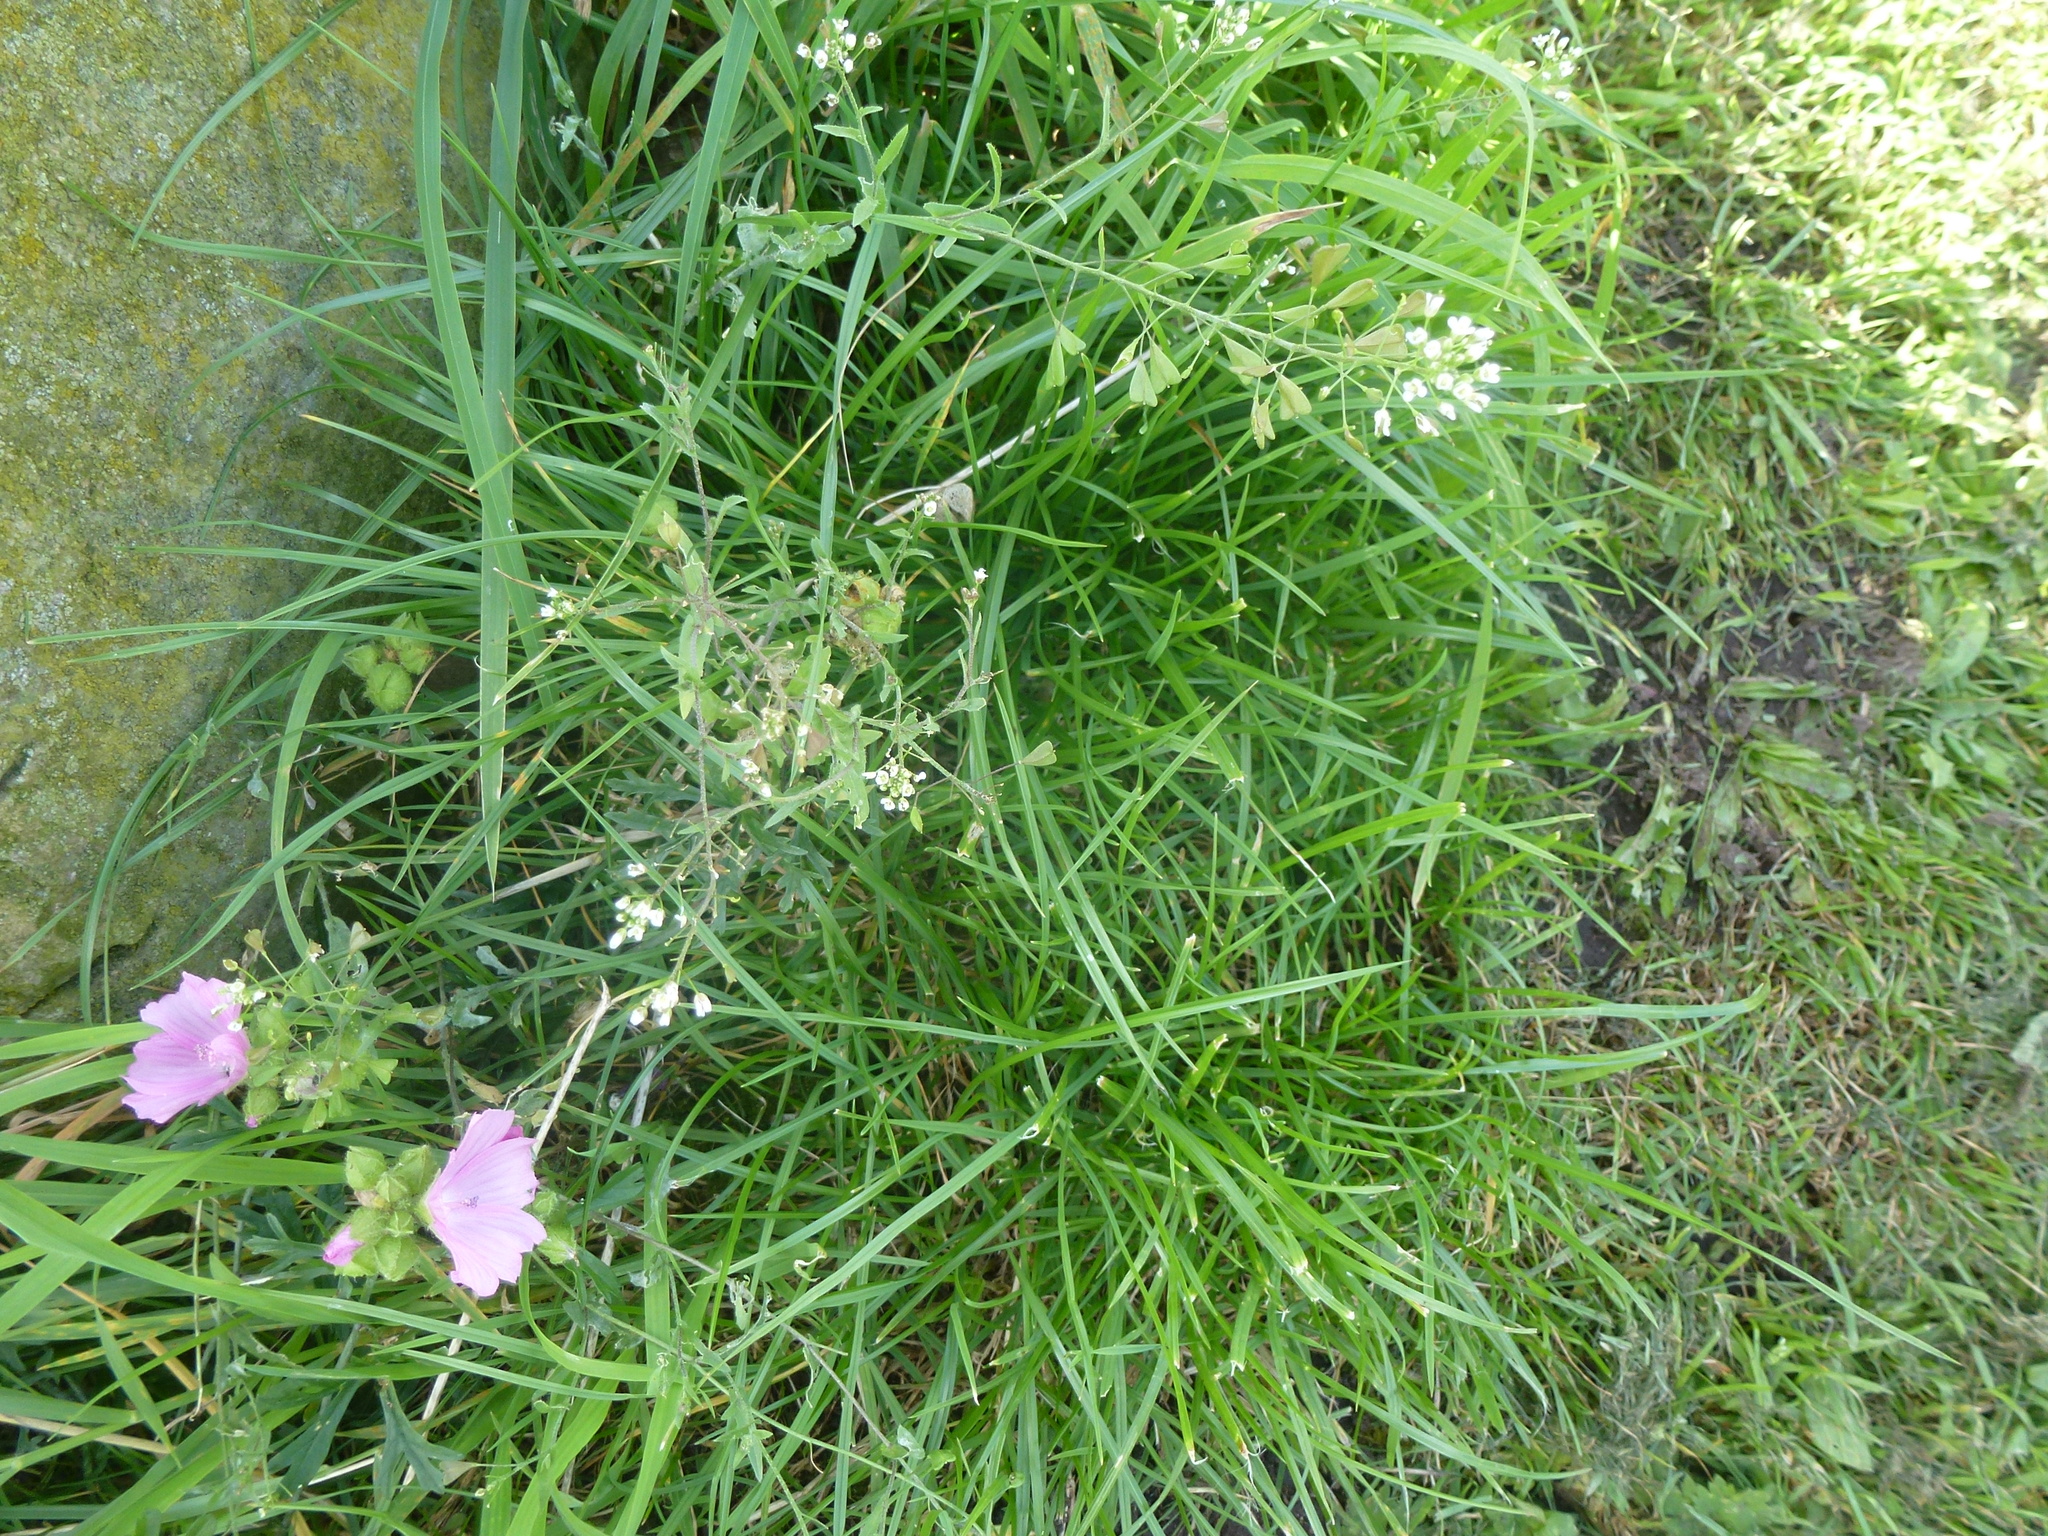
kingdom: Plantae
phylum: Tracheophyta
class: Magnoliopsida
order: Brassicales
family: Brassicaceae
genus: Capsella
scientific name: Capsella bursa-pastoris
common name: Shepherd's purse
